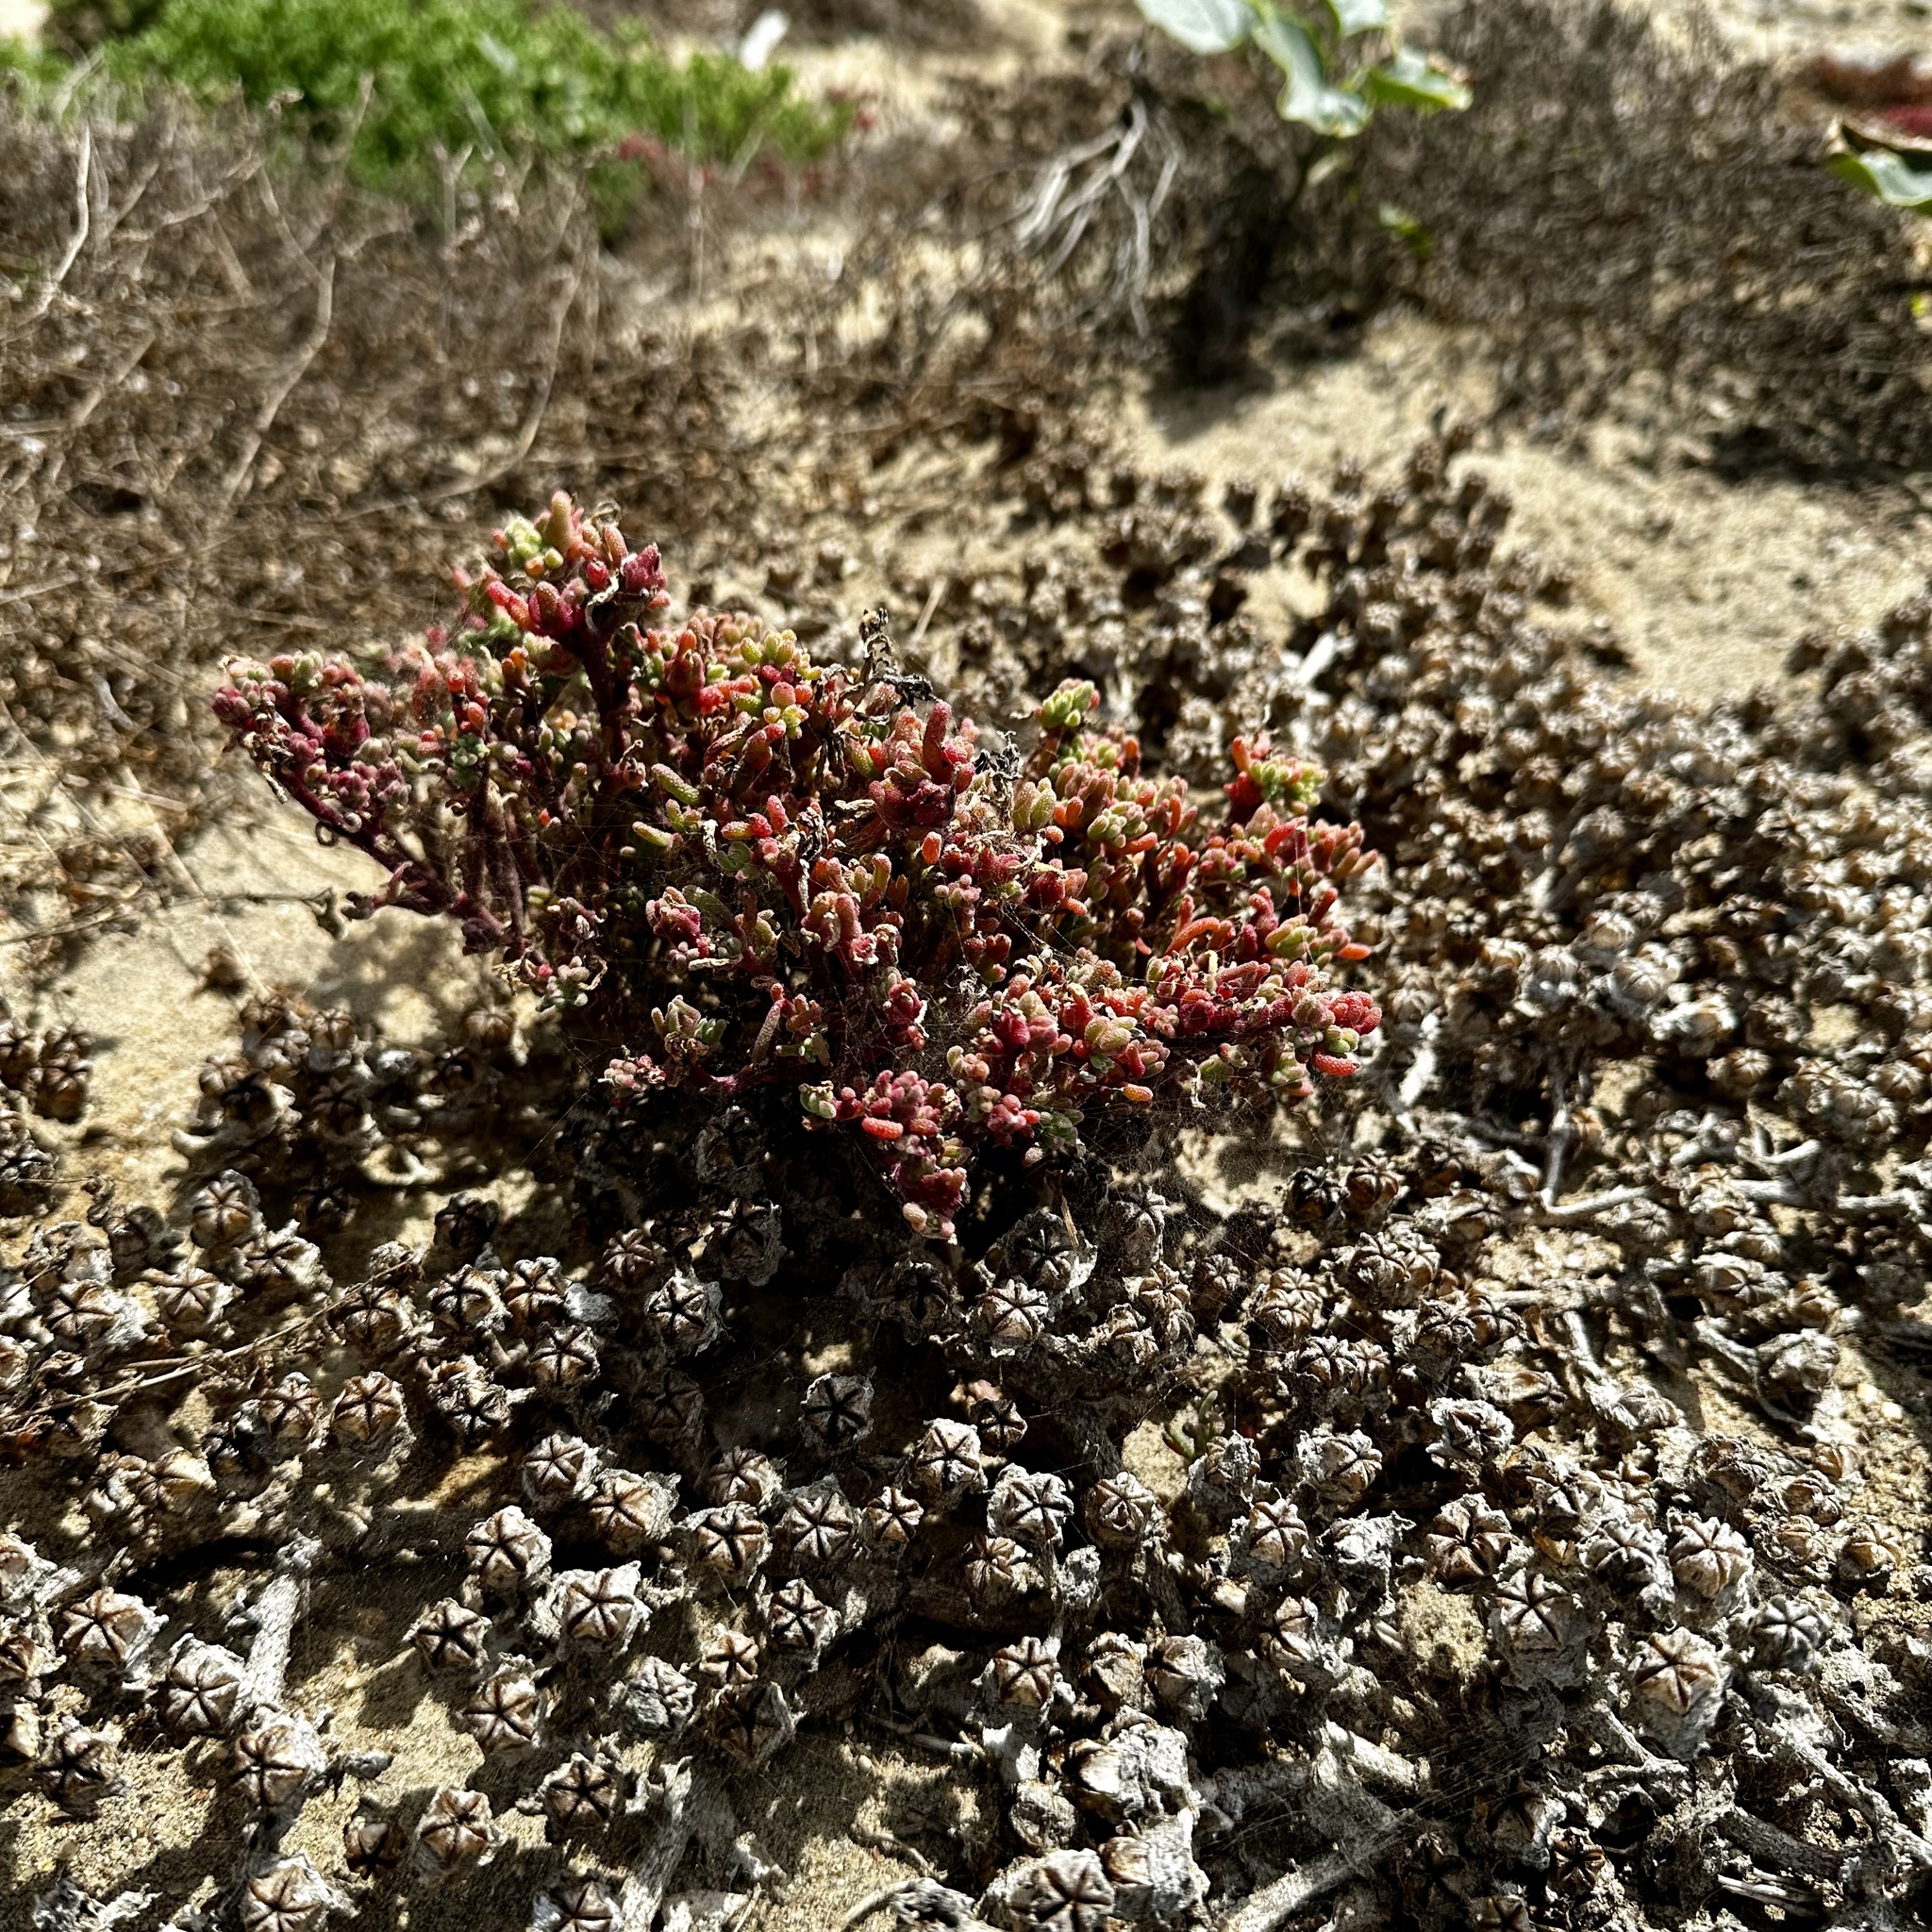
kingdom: Plantae
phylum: Tracheophyta
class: Magnoliopsida
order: Caryophyllales
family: Aizoaceae
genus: Mesembryanthemum
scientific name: Mesembryanthemum nodiflorum
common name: Slenderleaf iceplant
